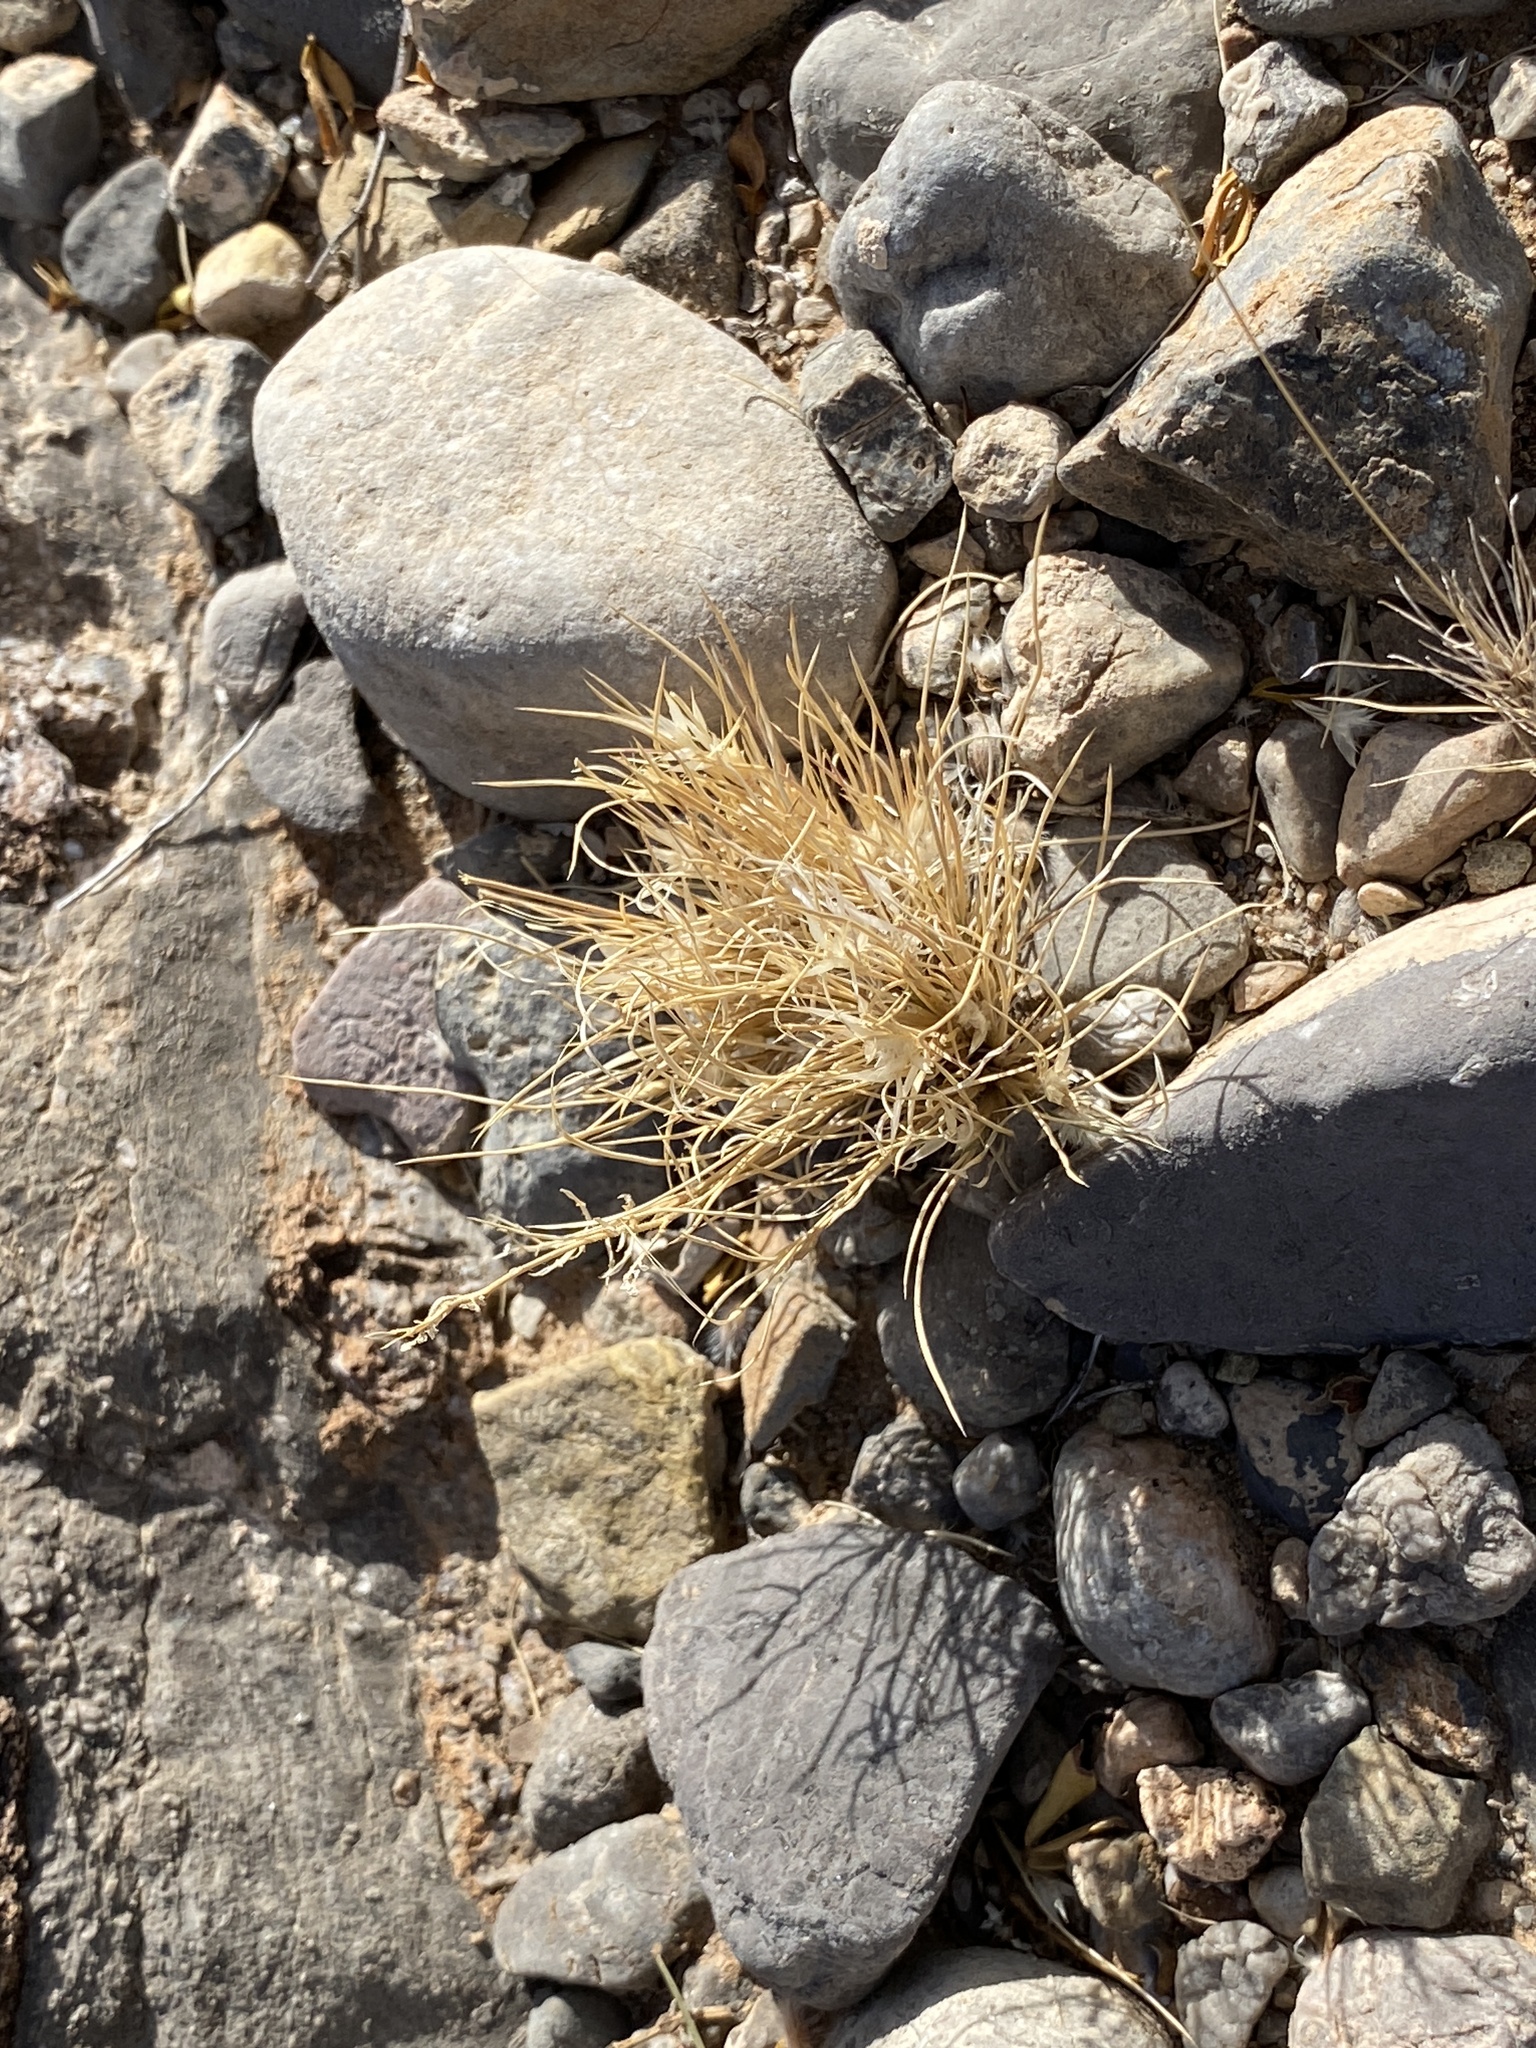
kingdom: Plantae
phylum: Tracheophyta
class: Liliopsida
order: Poales
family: Poaceae
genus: Dasyochloa
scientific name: Dasyochloa pulchella
